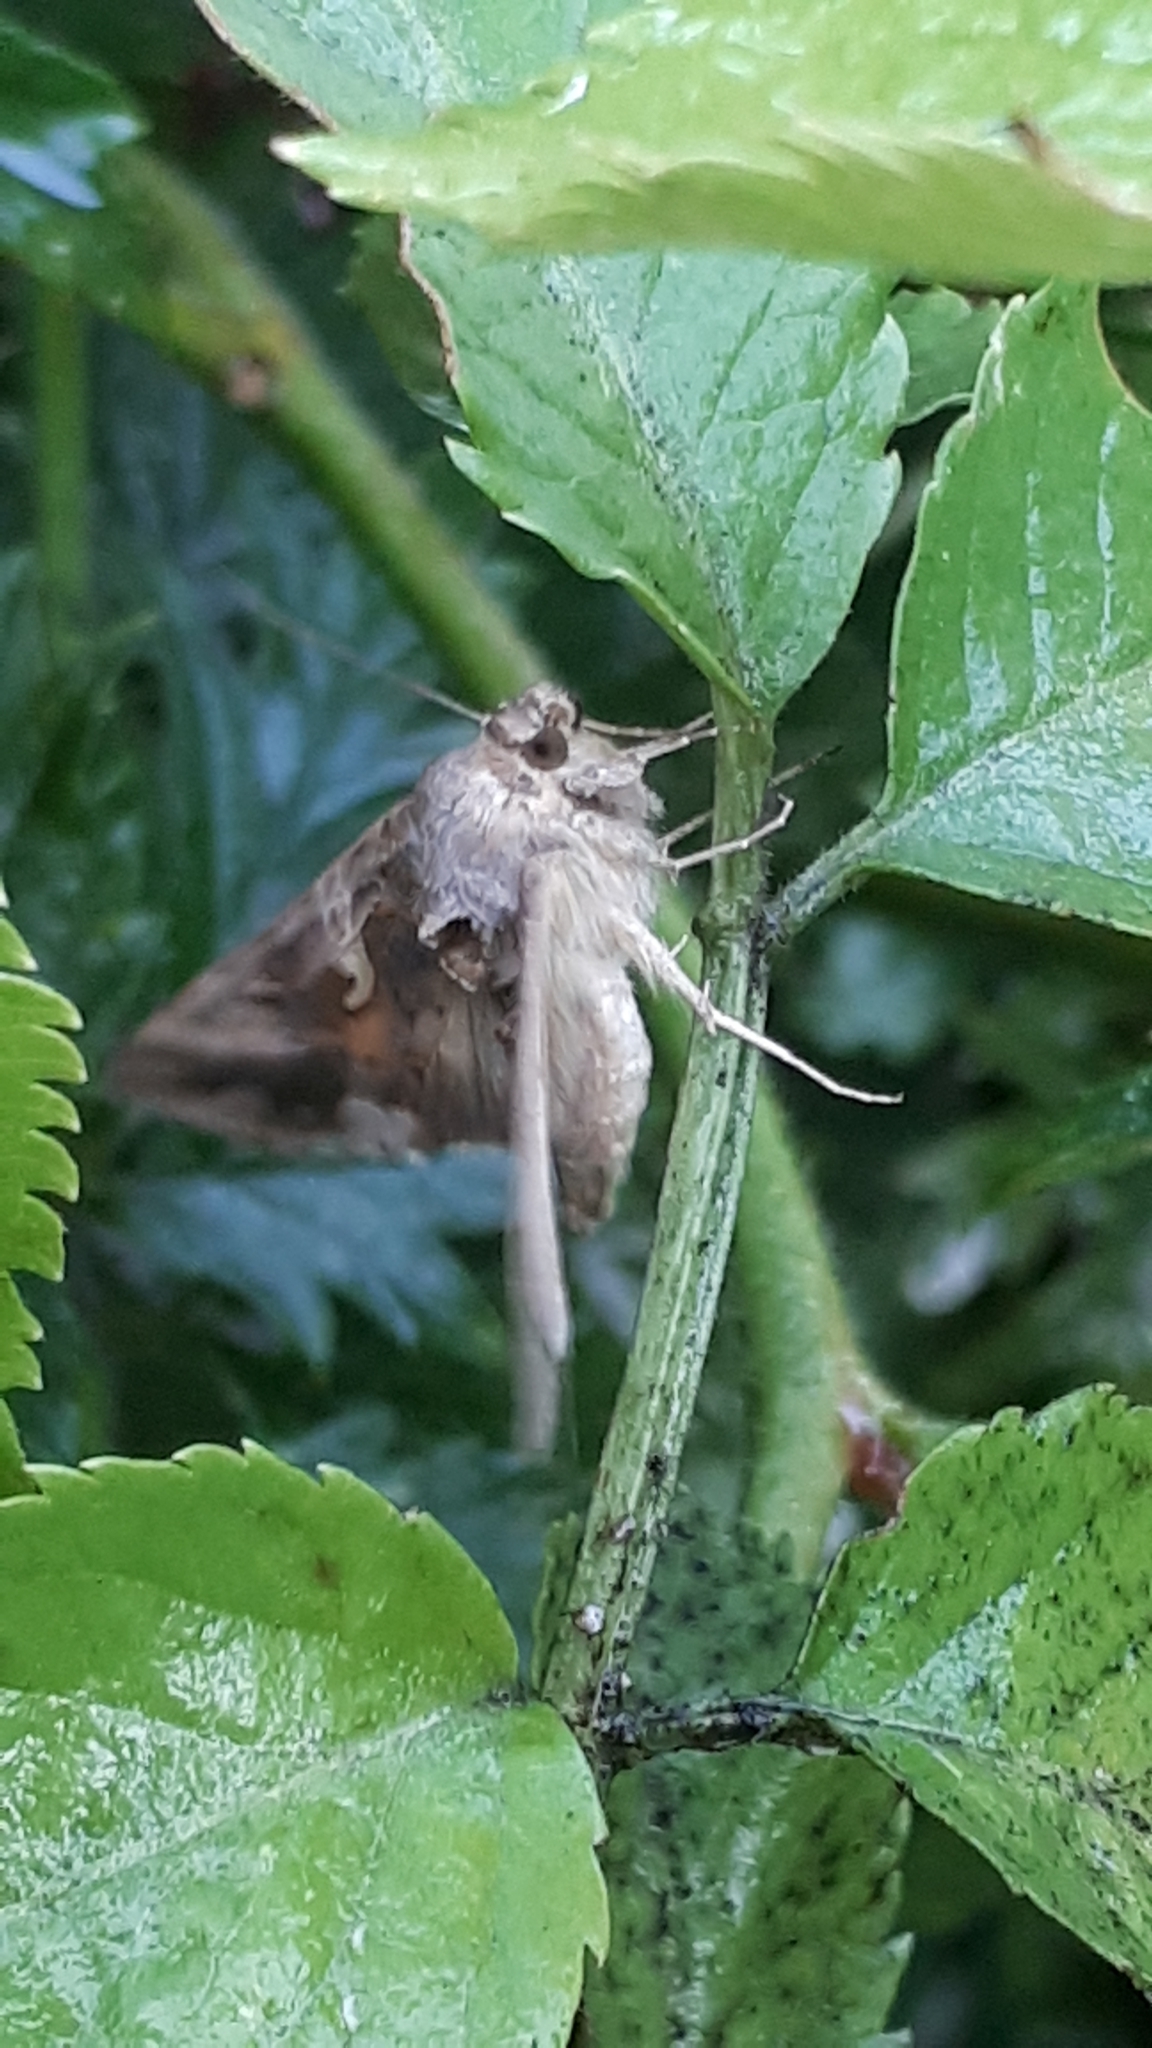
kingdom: Animalia
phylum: Arthropoda
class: Insecta
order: Lepidoptera
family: Noctuidae
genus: Autographa
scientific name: Autographa gamma
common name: Silver y
